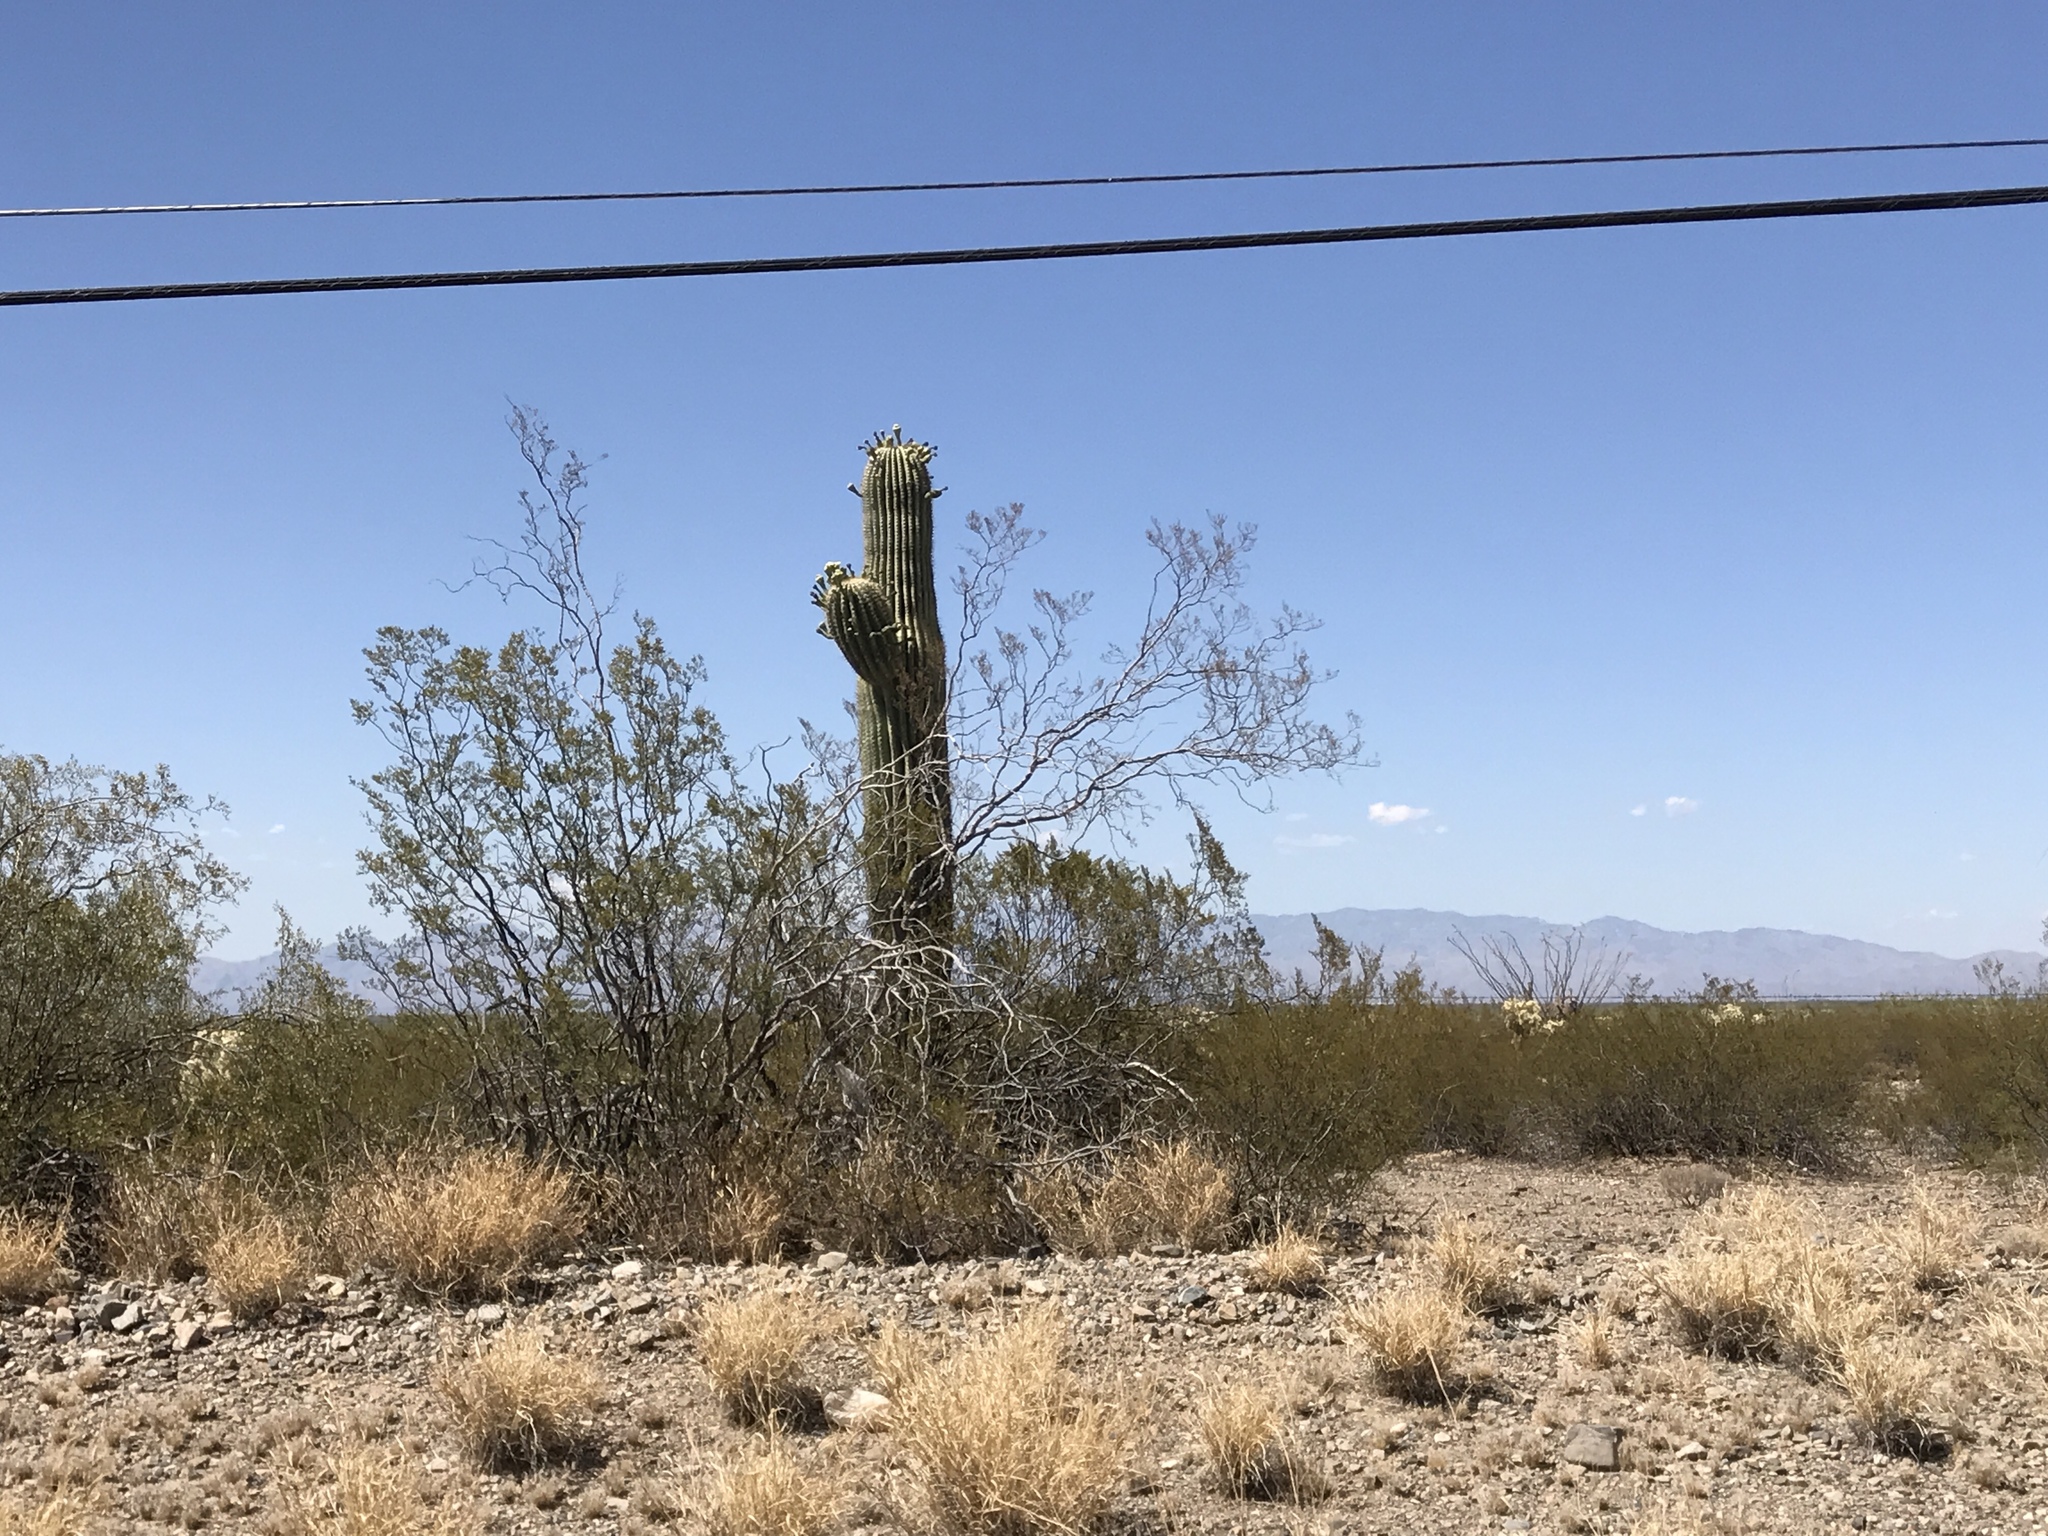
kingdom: Plantae
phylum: Tracheophyta
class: Magnoliopsida
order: Caryophyllales
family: Cactaceae
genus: Carnegiea
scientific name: Carnegiea gigantea
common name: Saguaro
